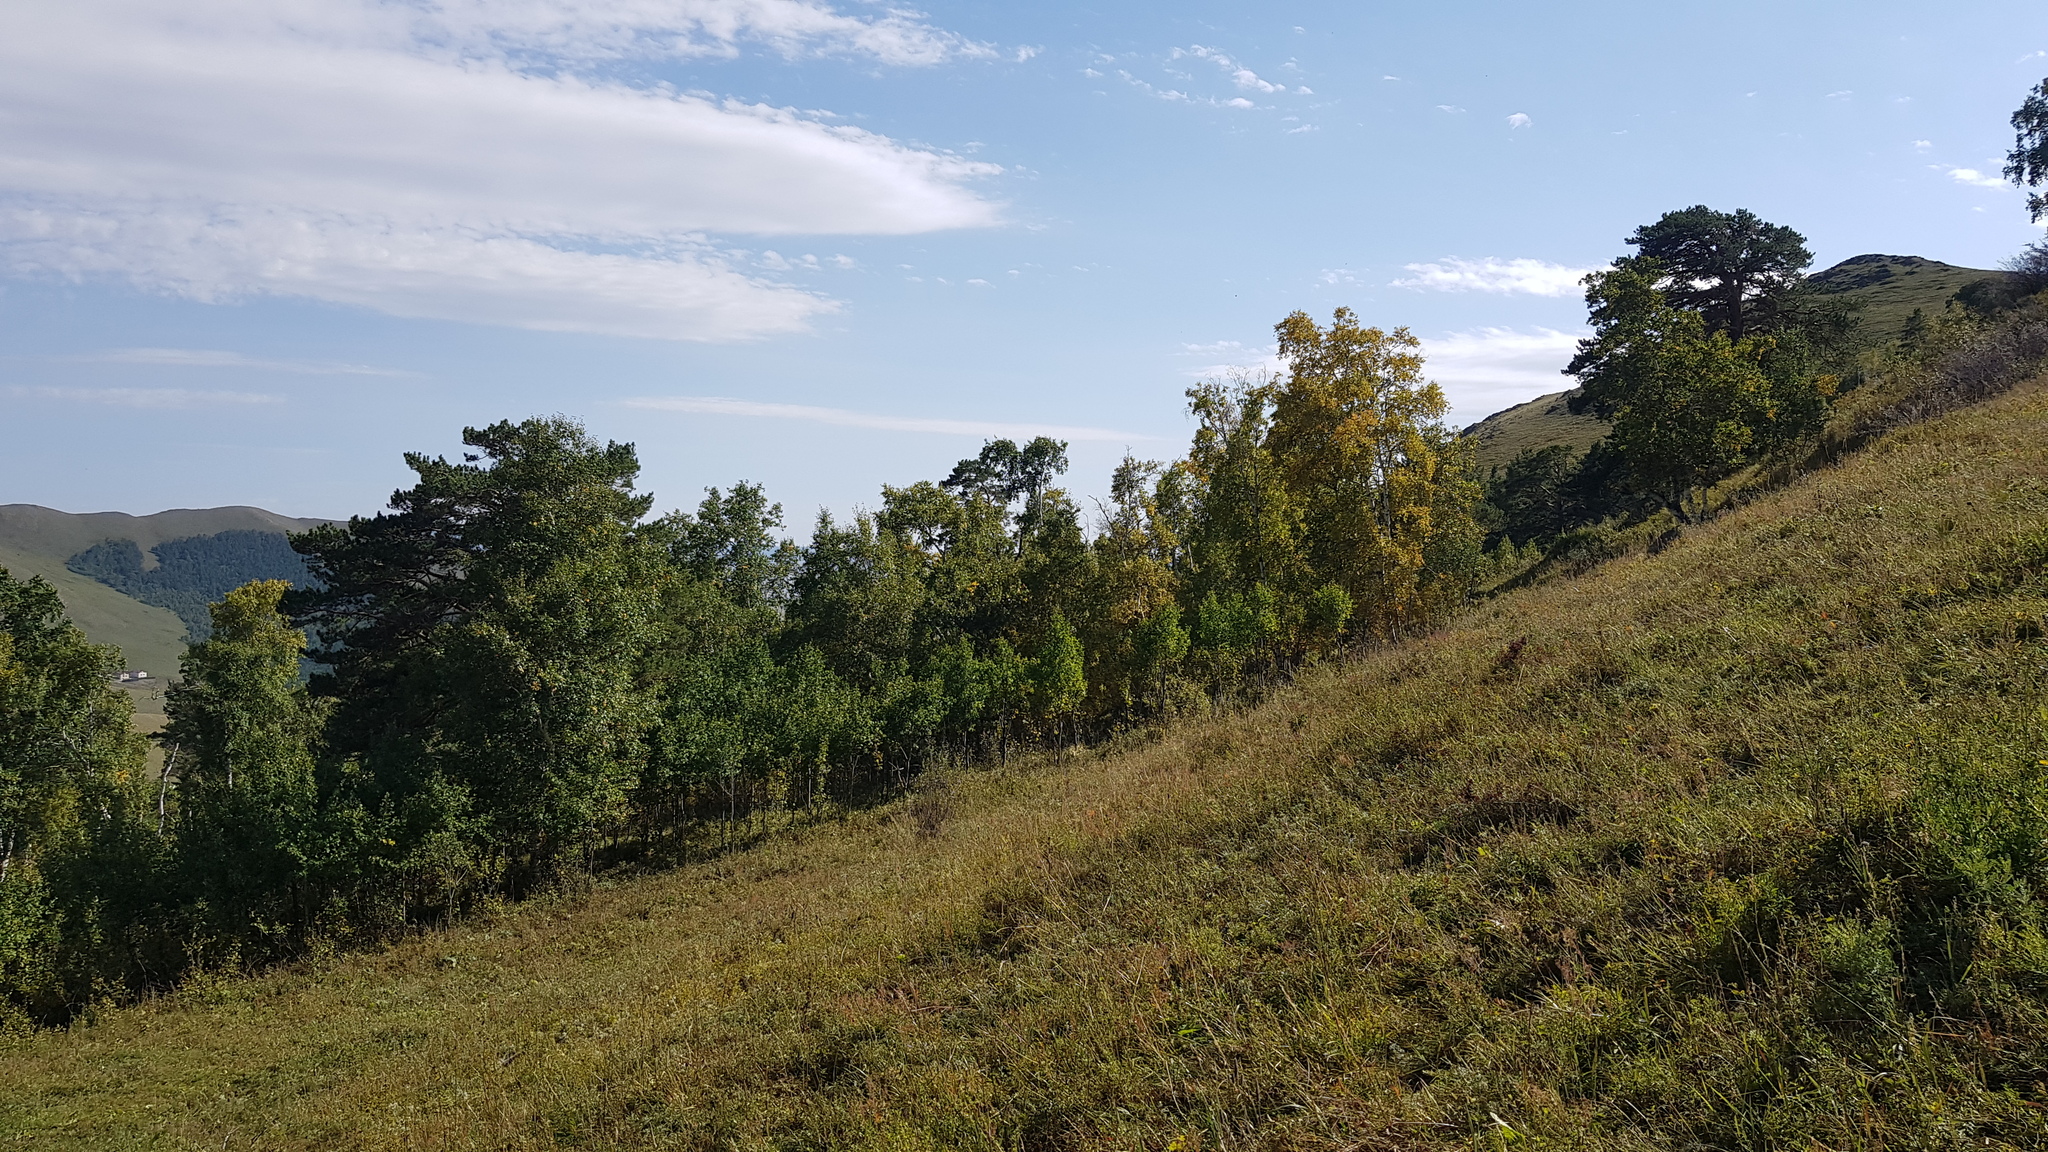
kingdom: Plantae
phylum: Tracheophyta
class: Magnoliopsida
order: Fagales
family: Betulaceae
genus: Betula
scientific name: Betula pendula
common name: Silver birch
